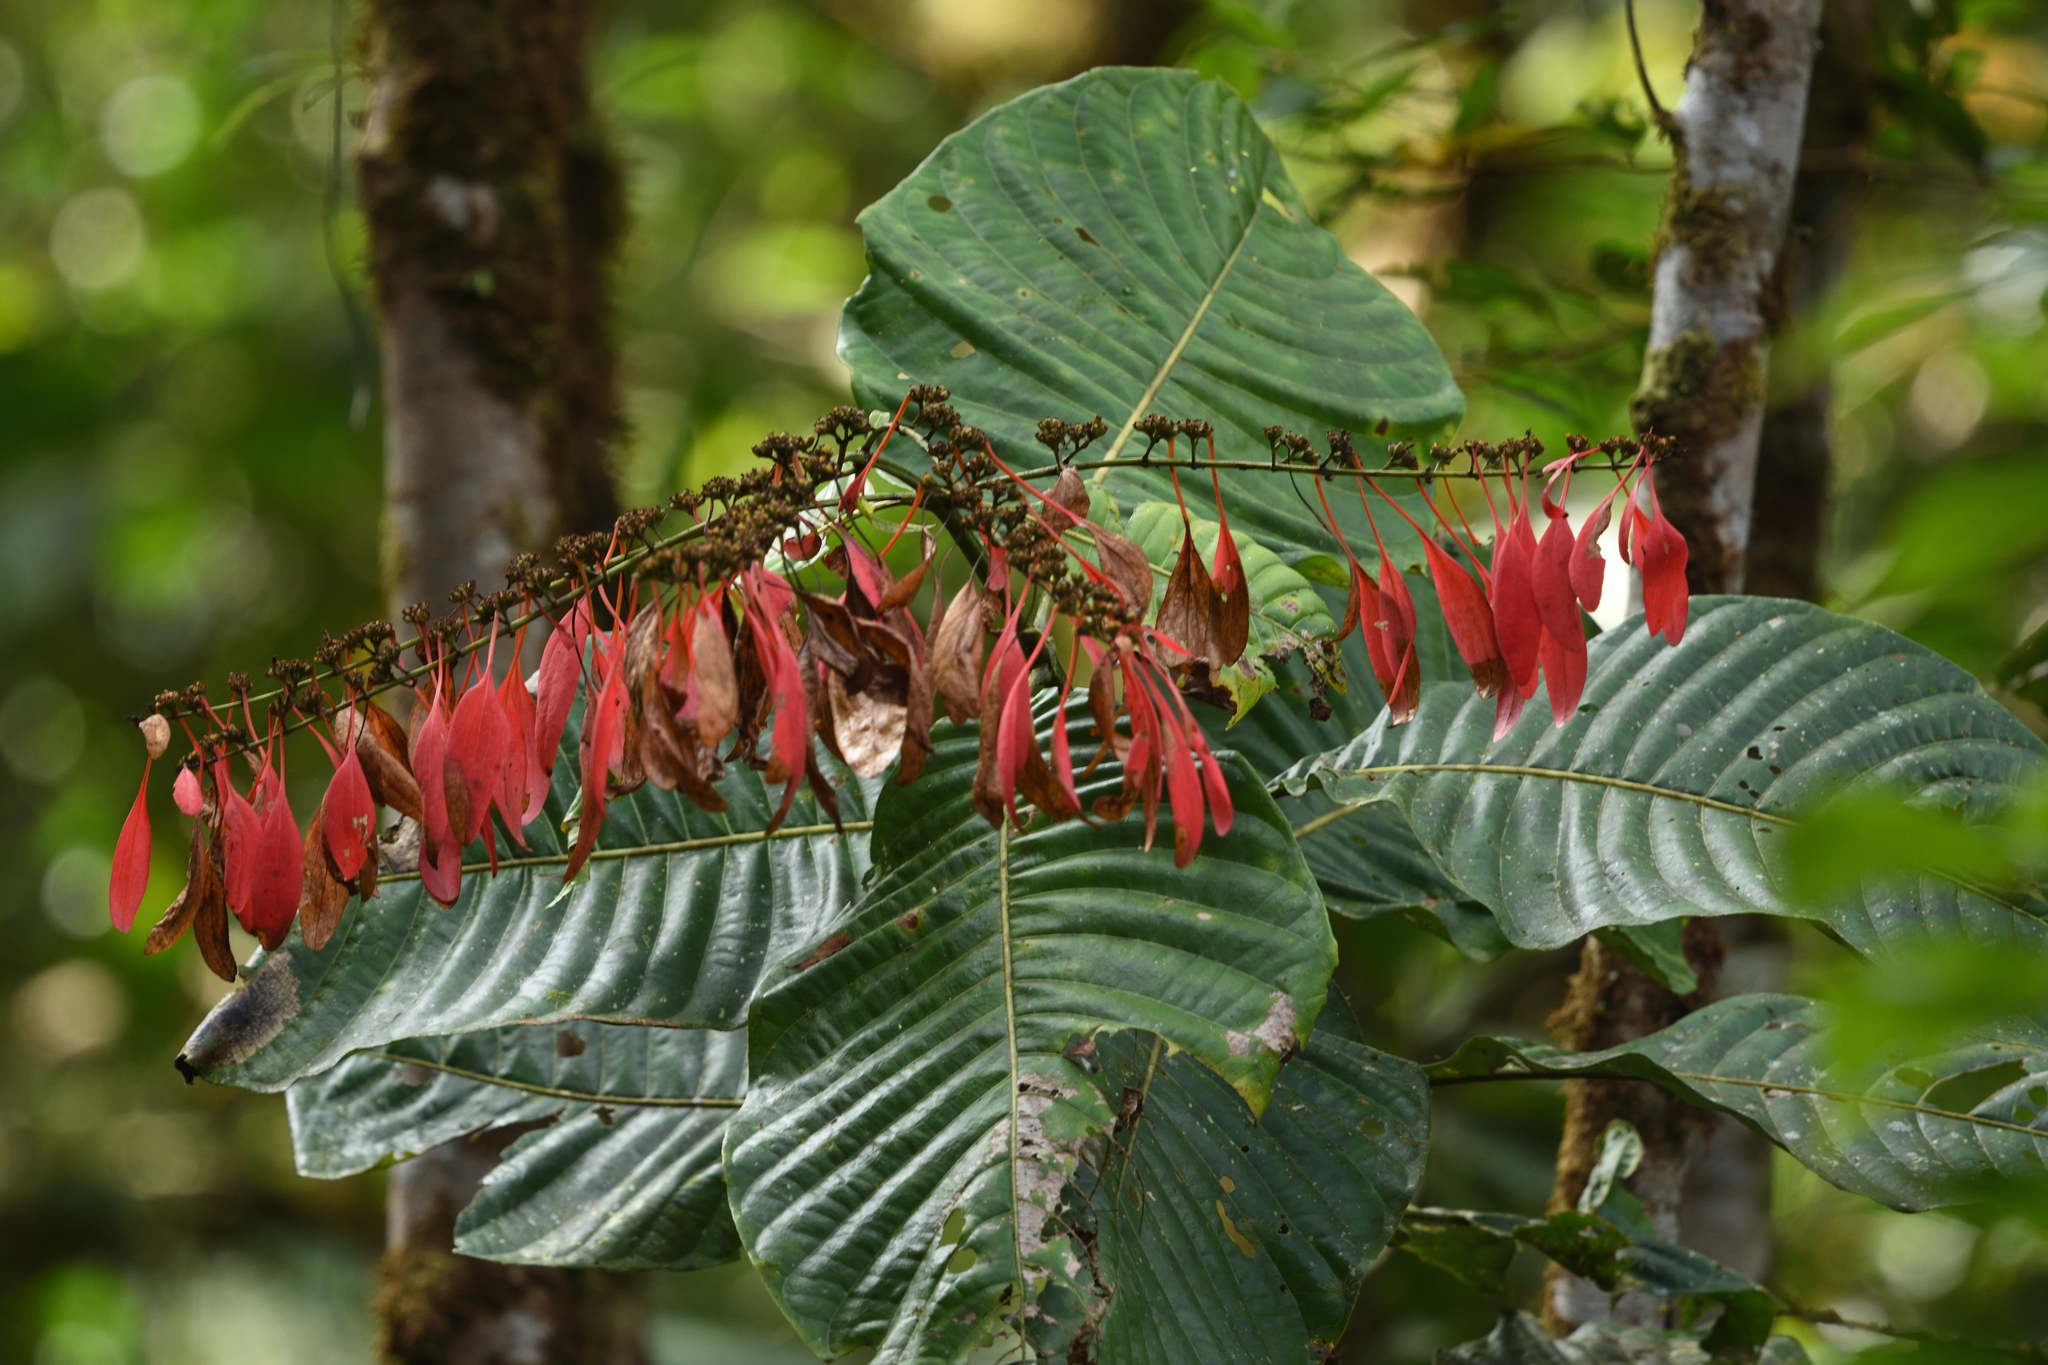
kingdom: Plantae
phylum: Tracheophyta
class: Magnoliopsida
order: Gentianales
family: Rubiaceae
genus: Warszewiczia
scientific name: Warszewiczia coccinea
